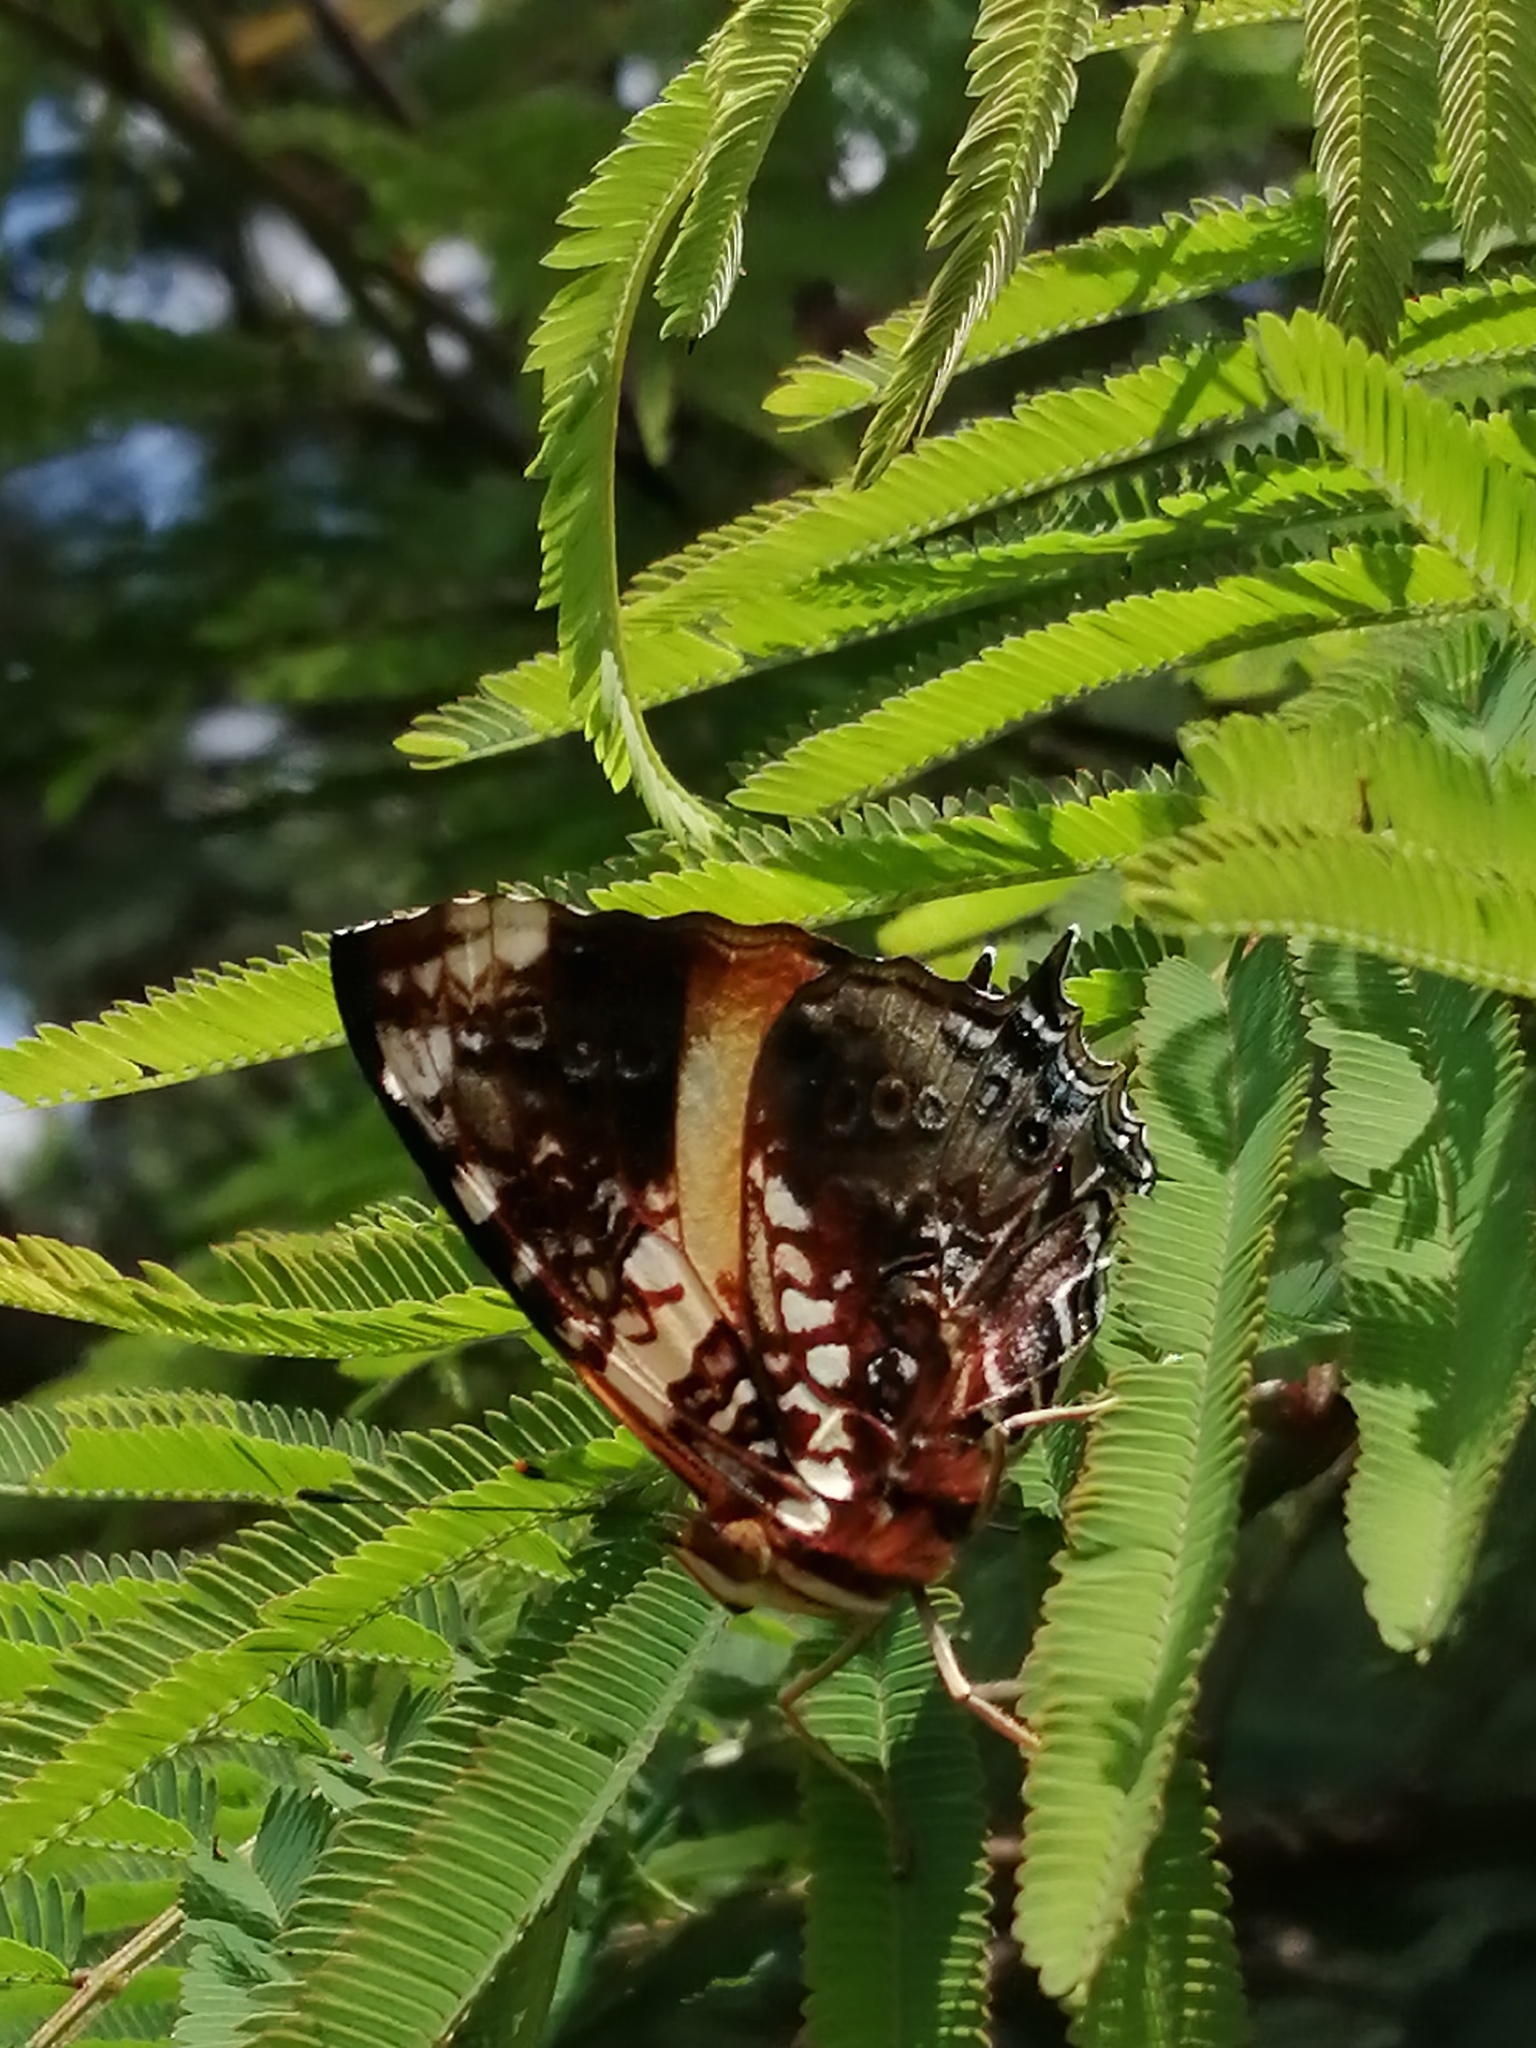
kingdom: Animalia
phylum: Arthropoda
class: Insecta
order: Lepidoptera
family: Nymphalidae
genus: Hypanartia
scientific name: Hypanartia godmanii
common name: Godman's mapwing
